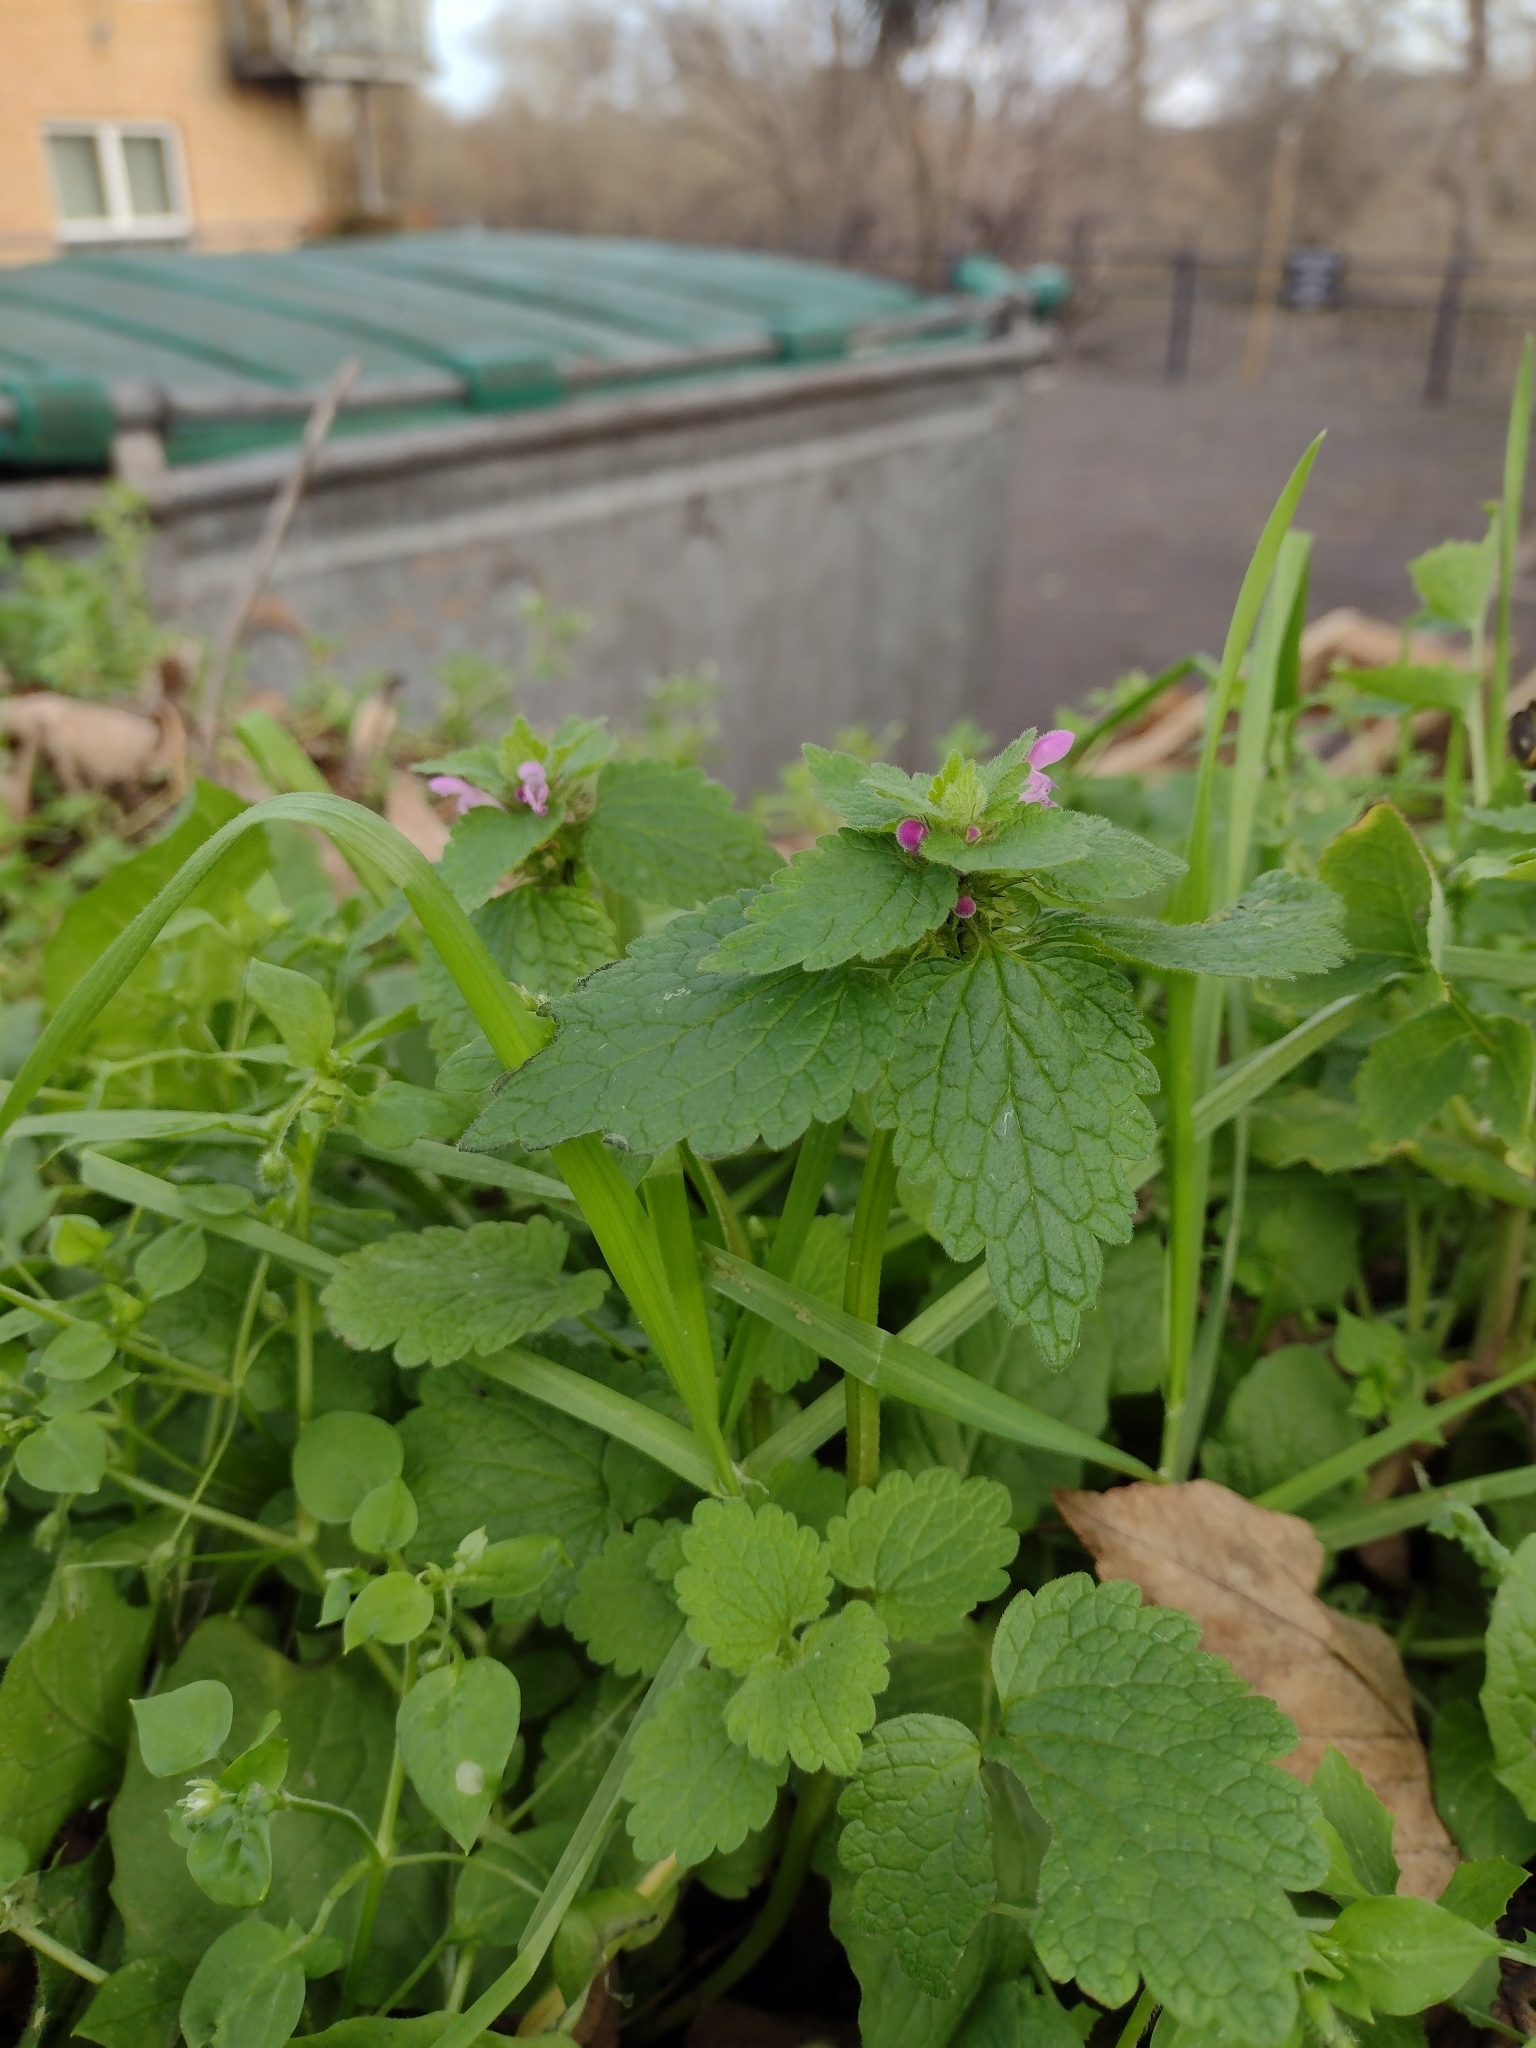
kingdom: Plantae
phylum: Tracheophyta
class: Magnoliopsida
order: Lamiales
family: Lamiaceae
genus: Lamium
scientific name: Lamium purpureum
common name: Red dead-nettle
